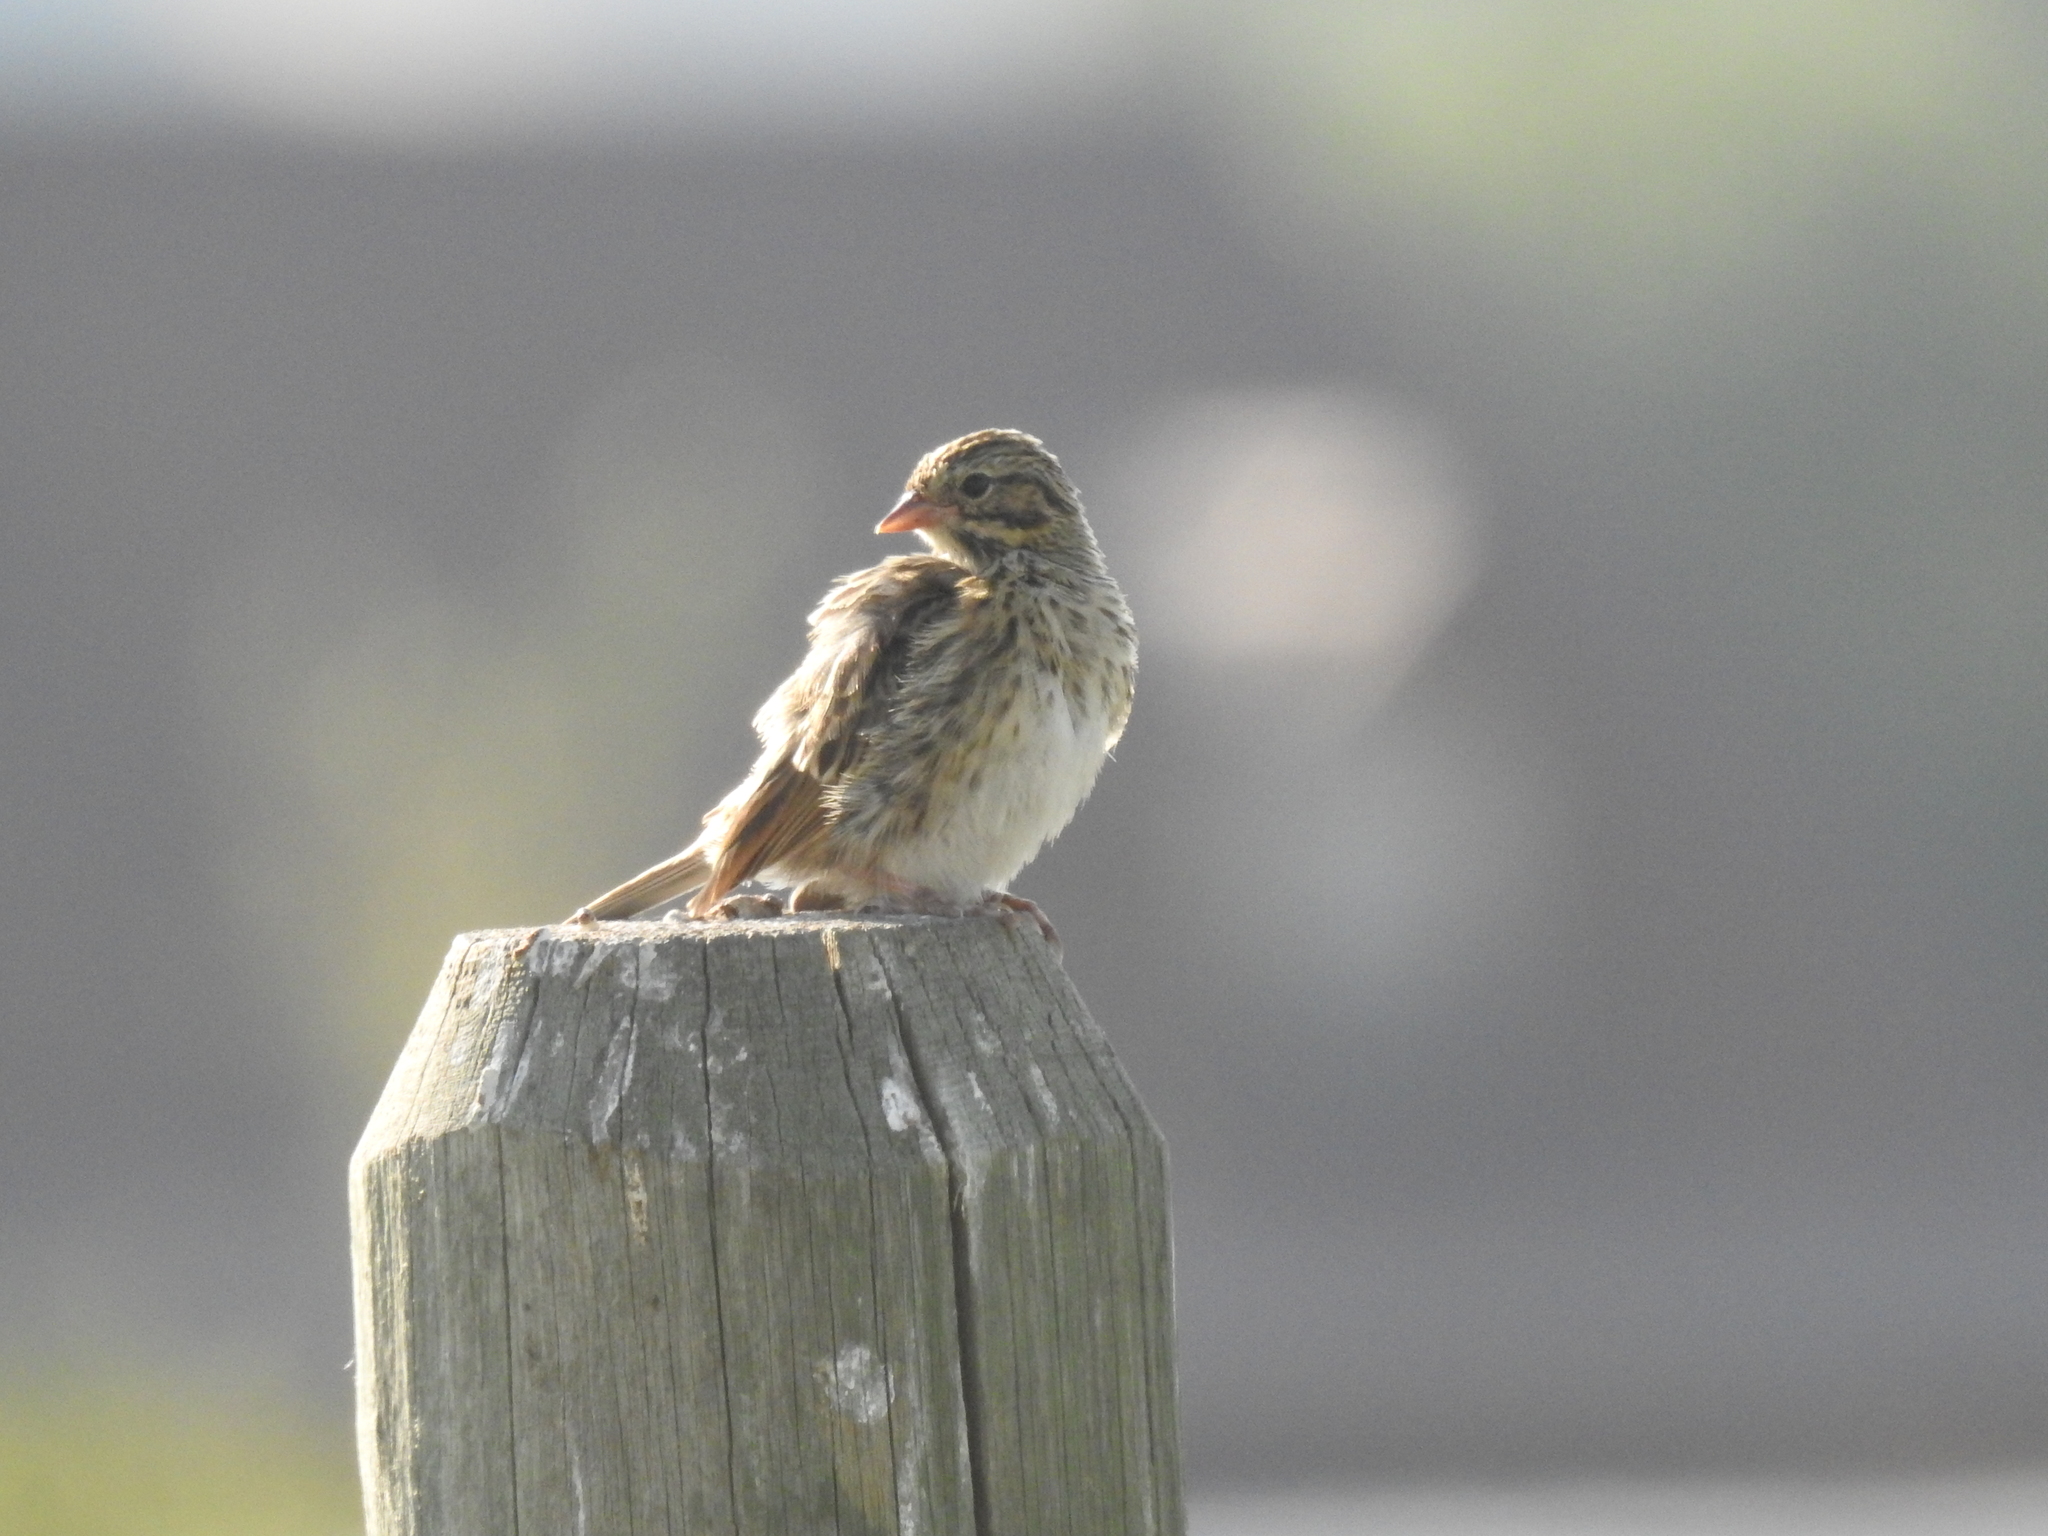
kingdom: Animalia
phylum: Chordata
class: Aves
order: Passeriformes
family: Passerellidae
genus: Melospiza
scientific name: Melospiza lincolnii
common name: Lincoln's sparrow
